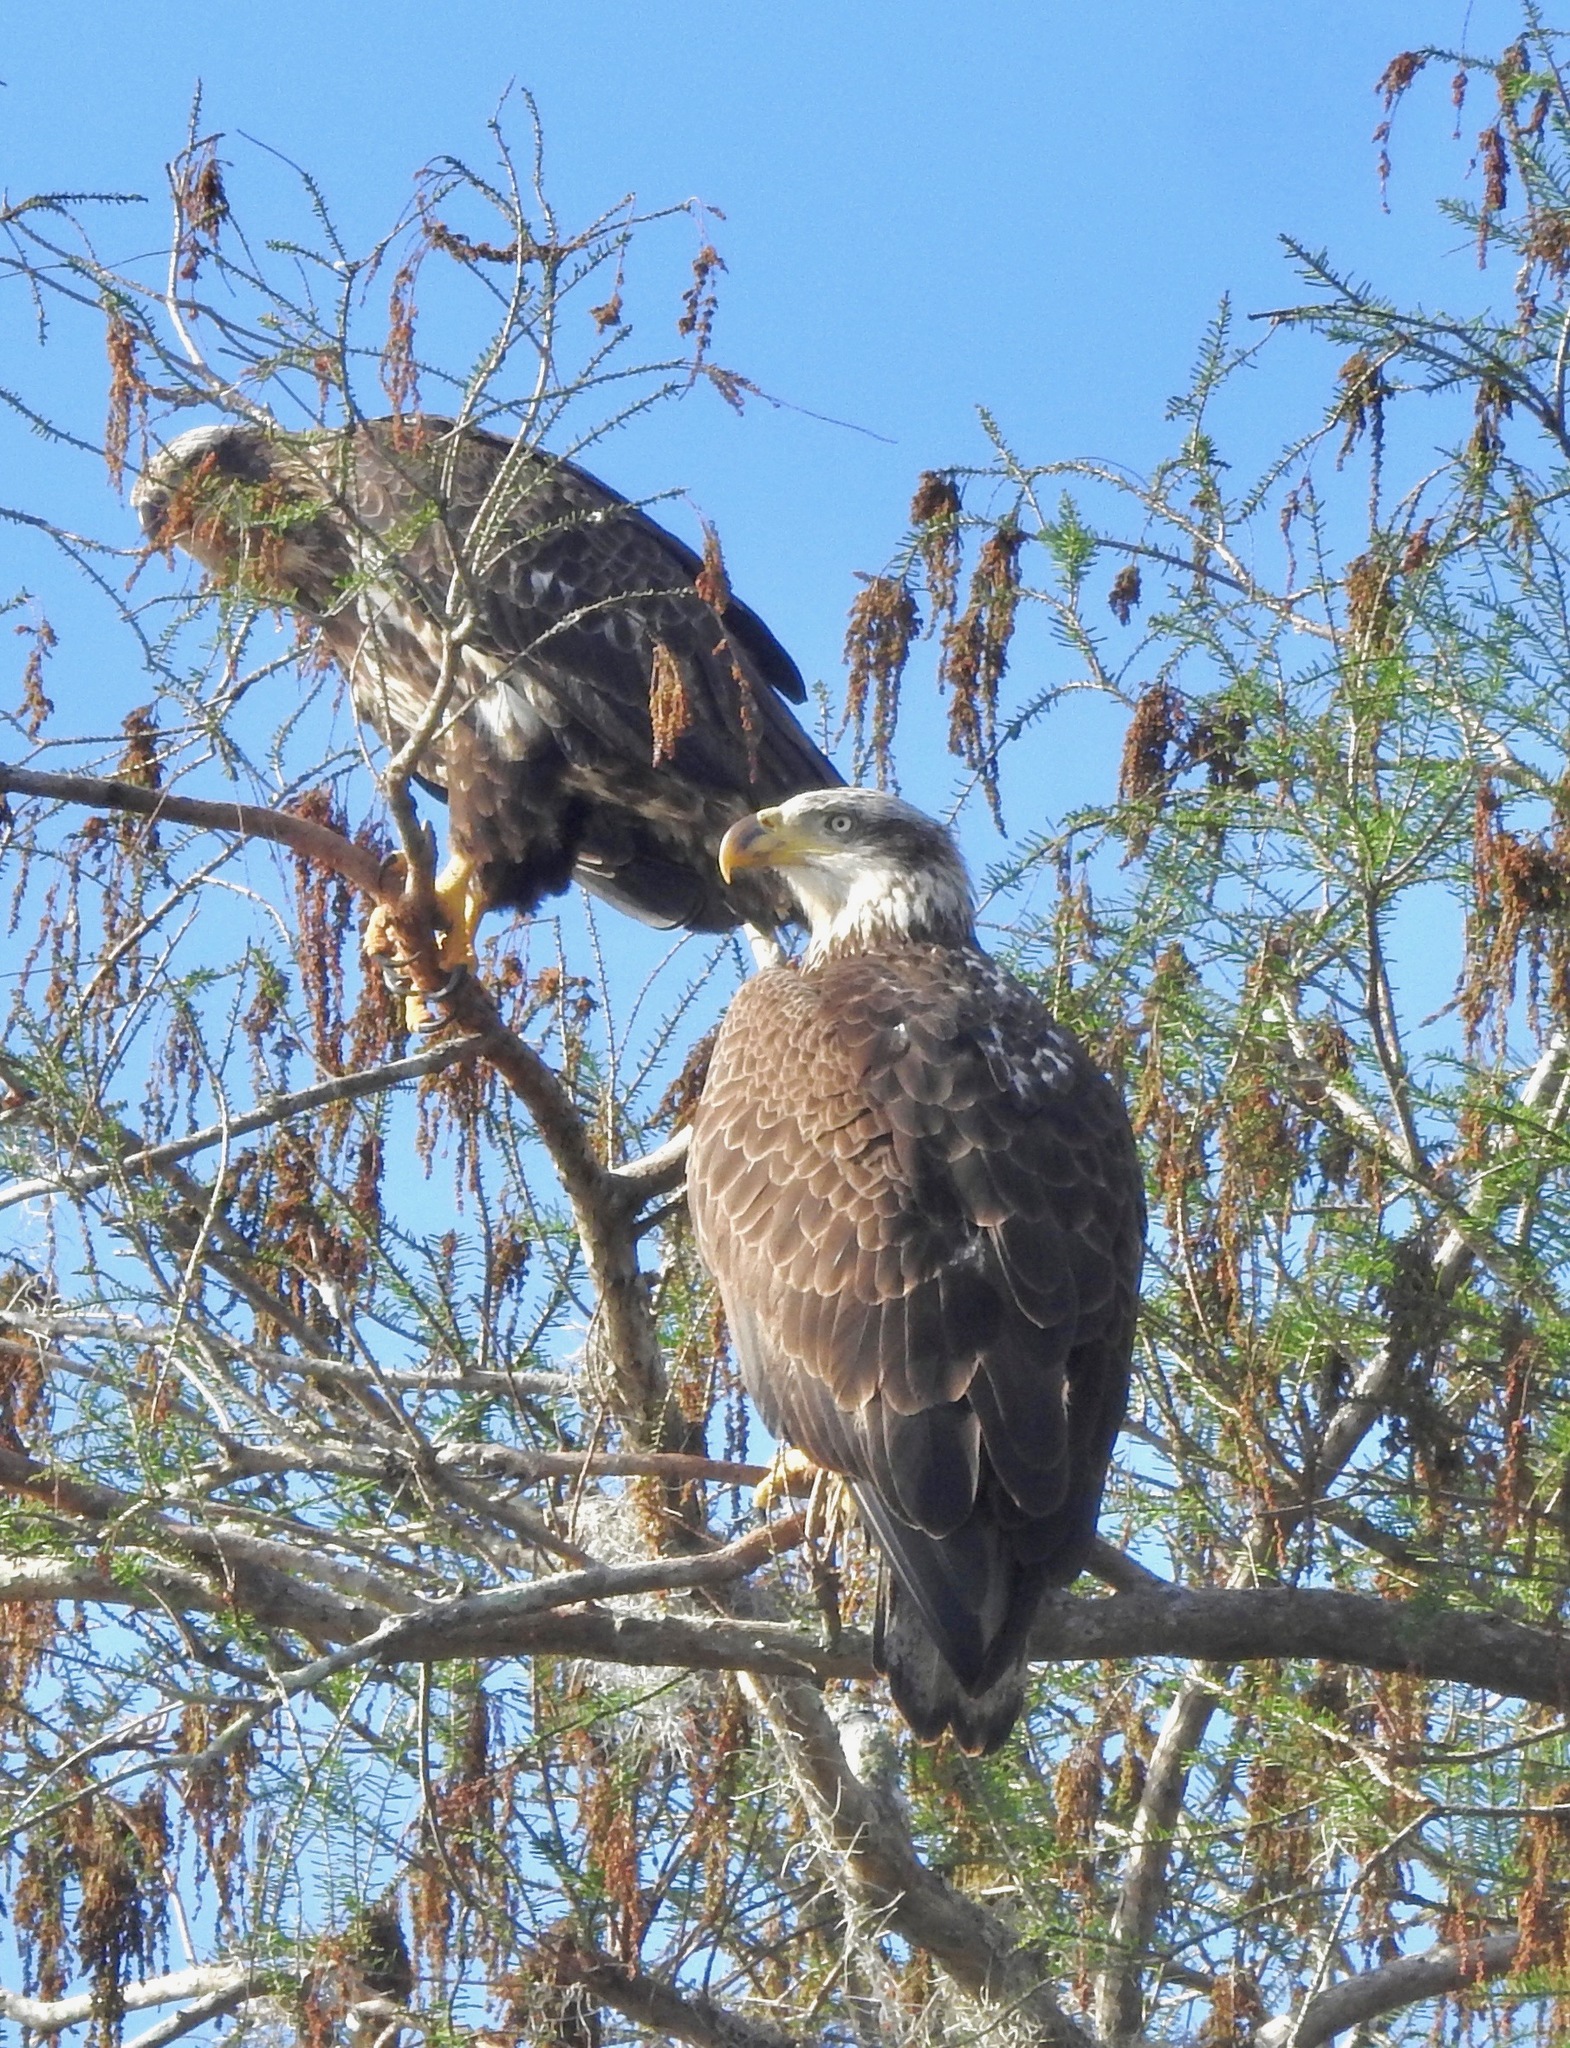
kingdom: Animalia
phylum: Chordata
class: Aves
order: Accipitriformes
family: Accipitridae
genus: Haliaeetus
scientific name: Haliaeetus leucocephalus
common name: Bald eagle
